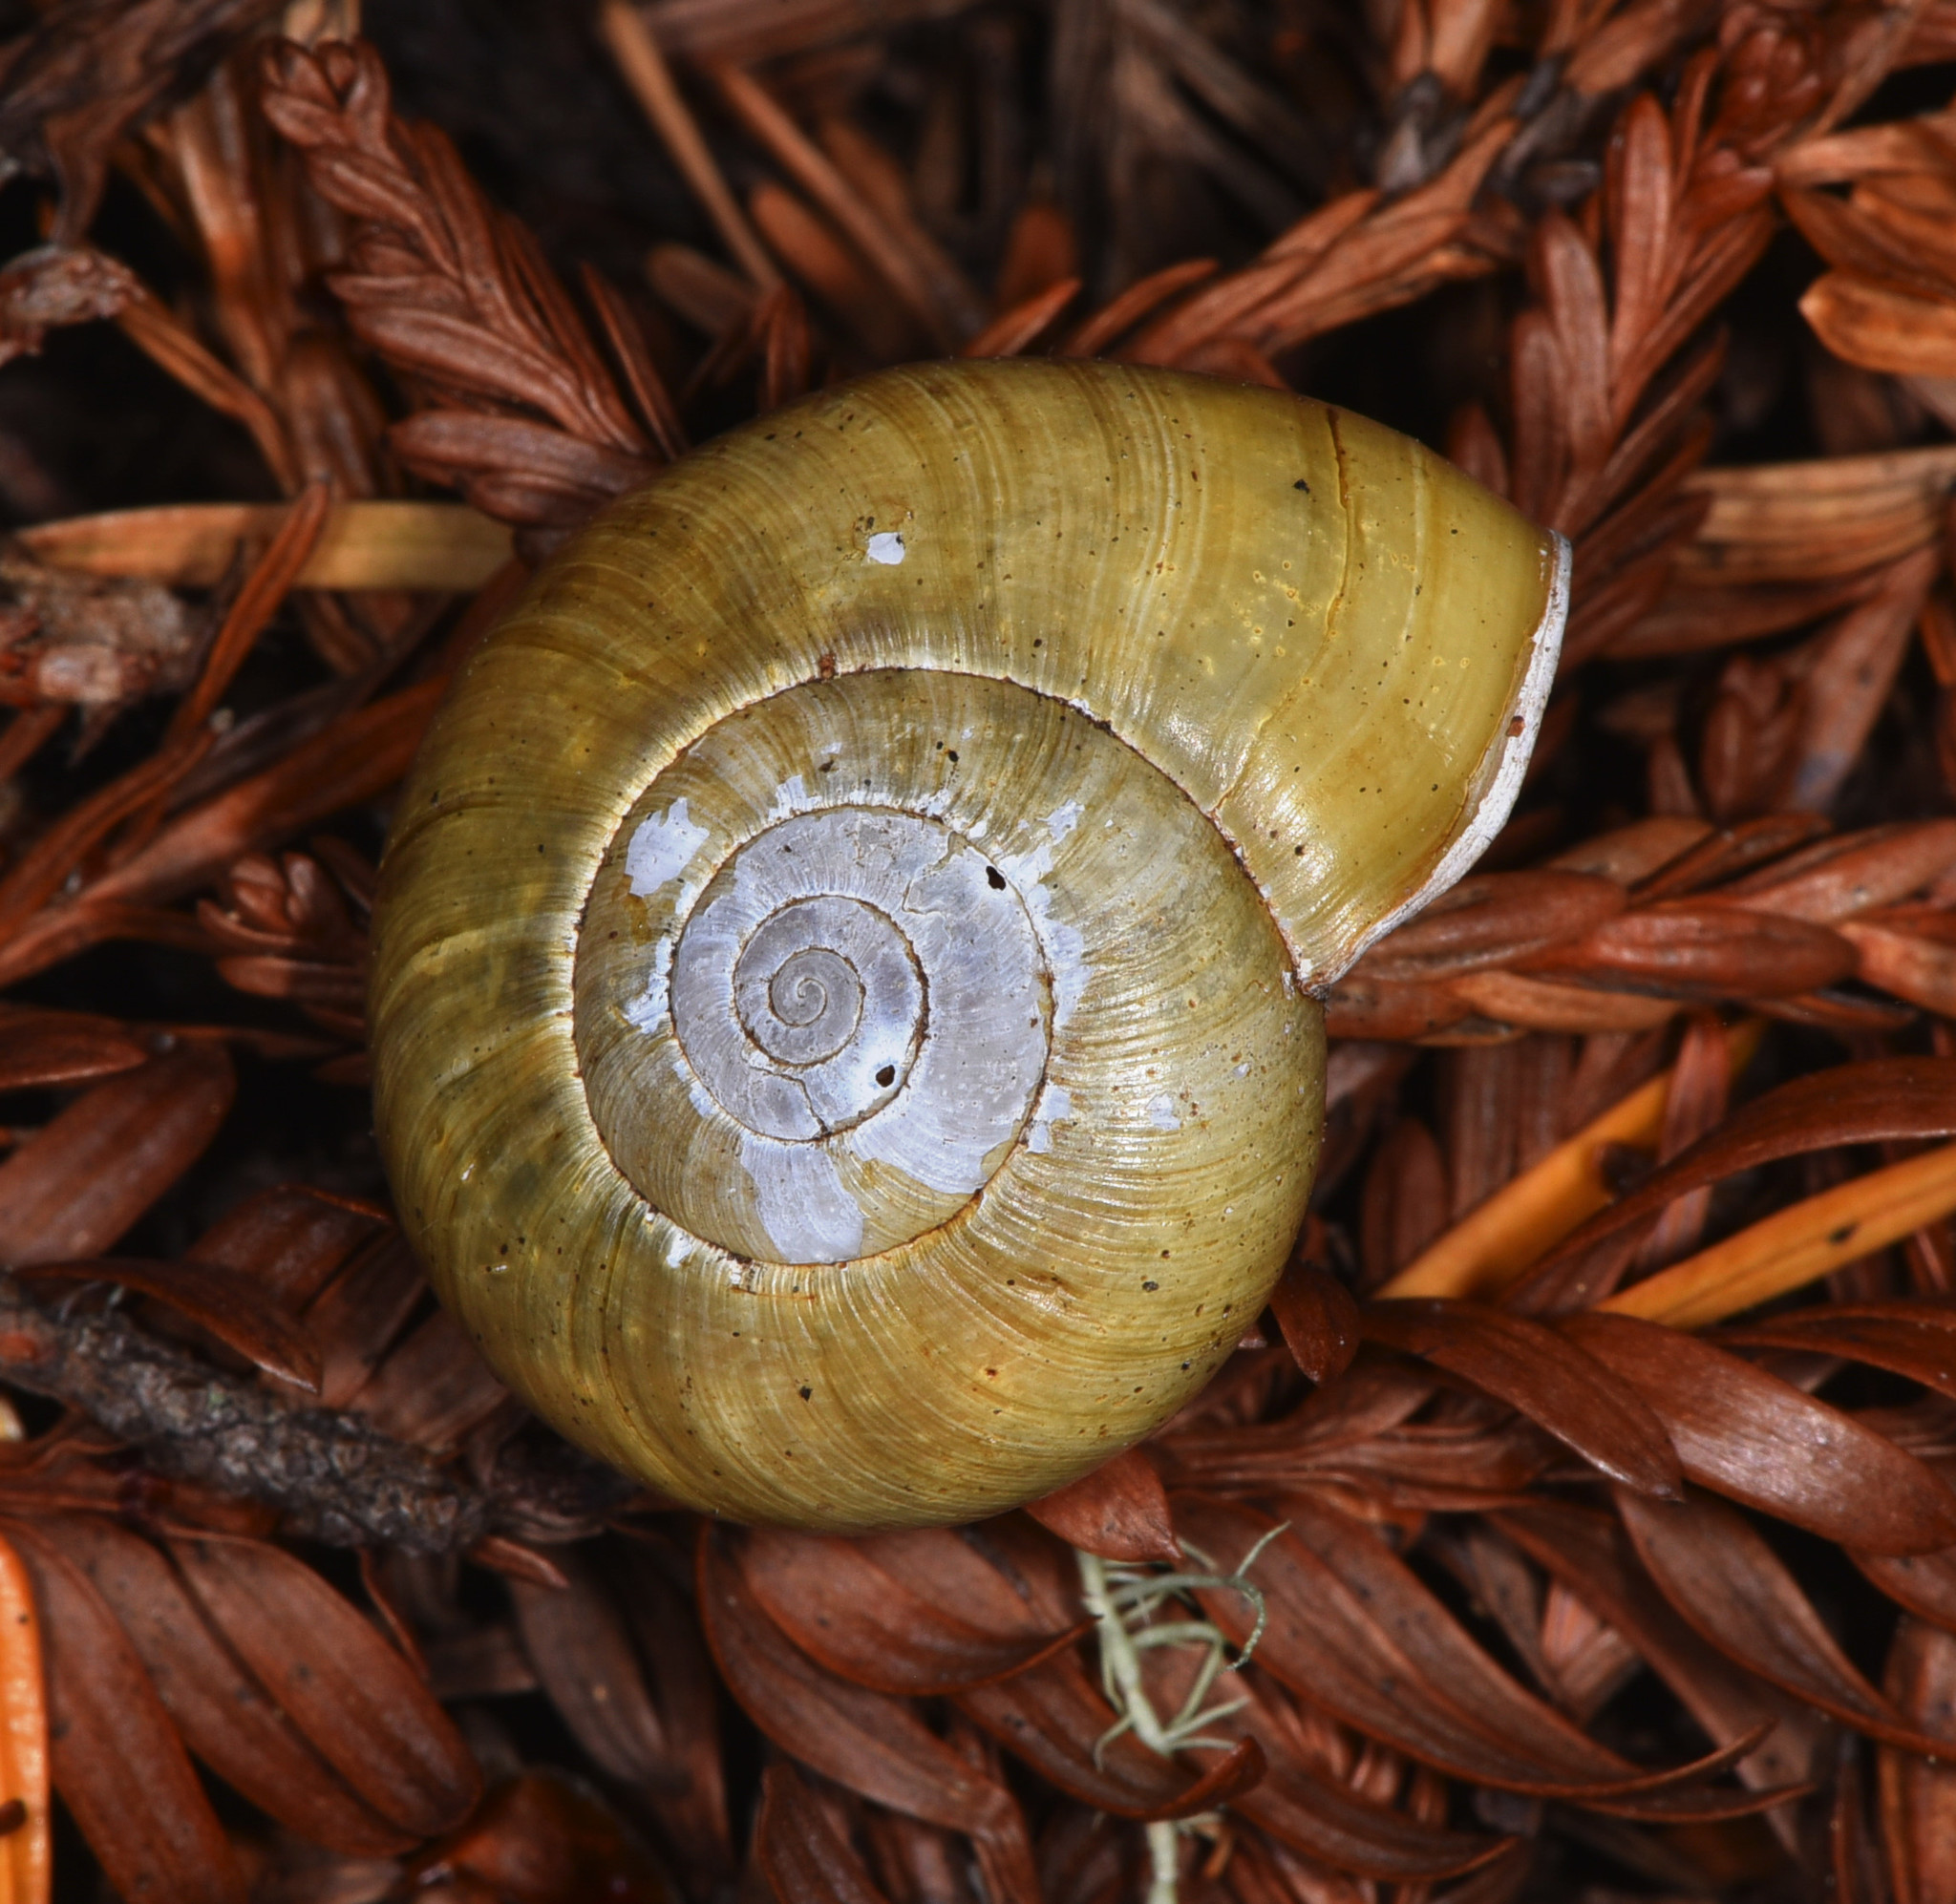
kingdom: Animalia
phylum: Mollusca
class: Gastropoda
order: Stylommatophora
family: Haplotrematidae
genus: Haplotrema
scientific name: Haplotrema minimum
